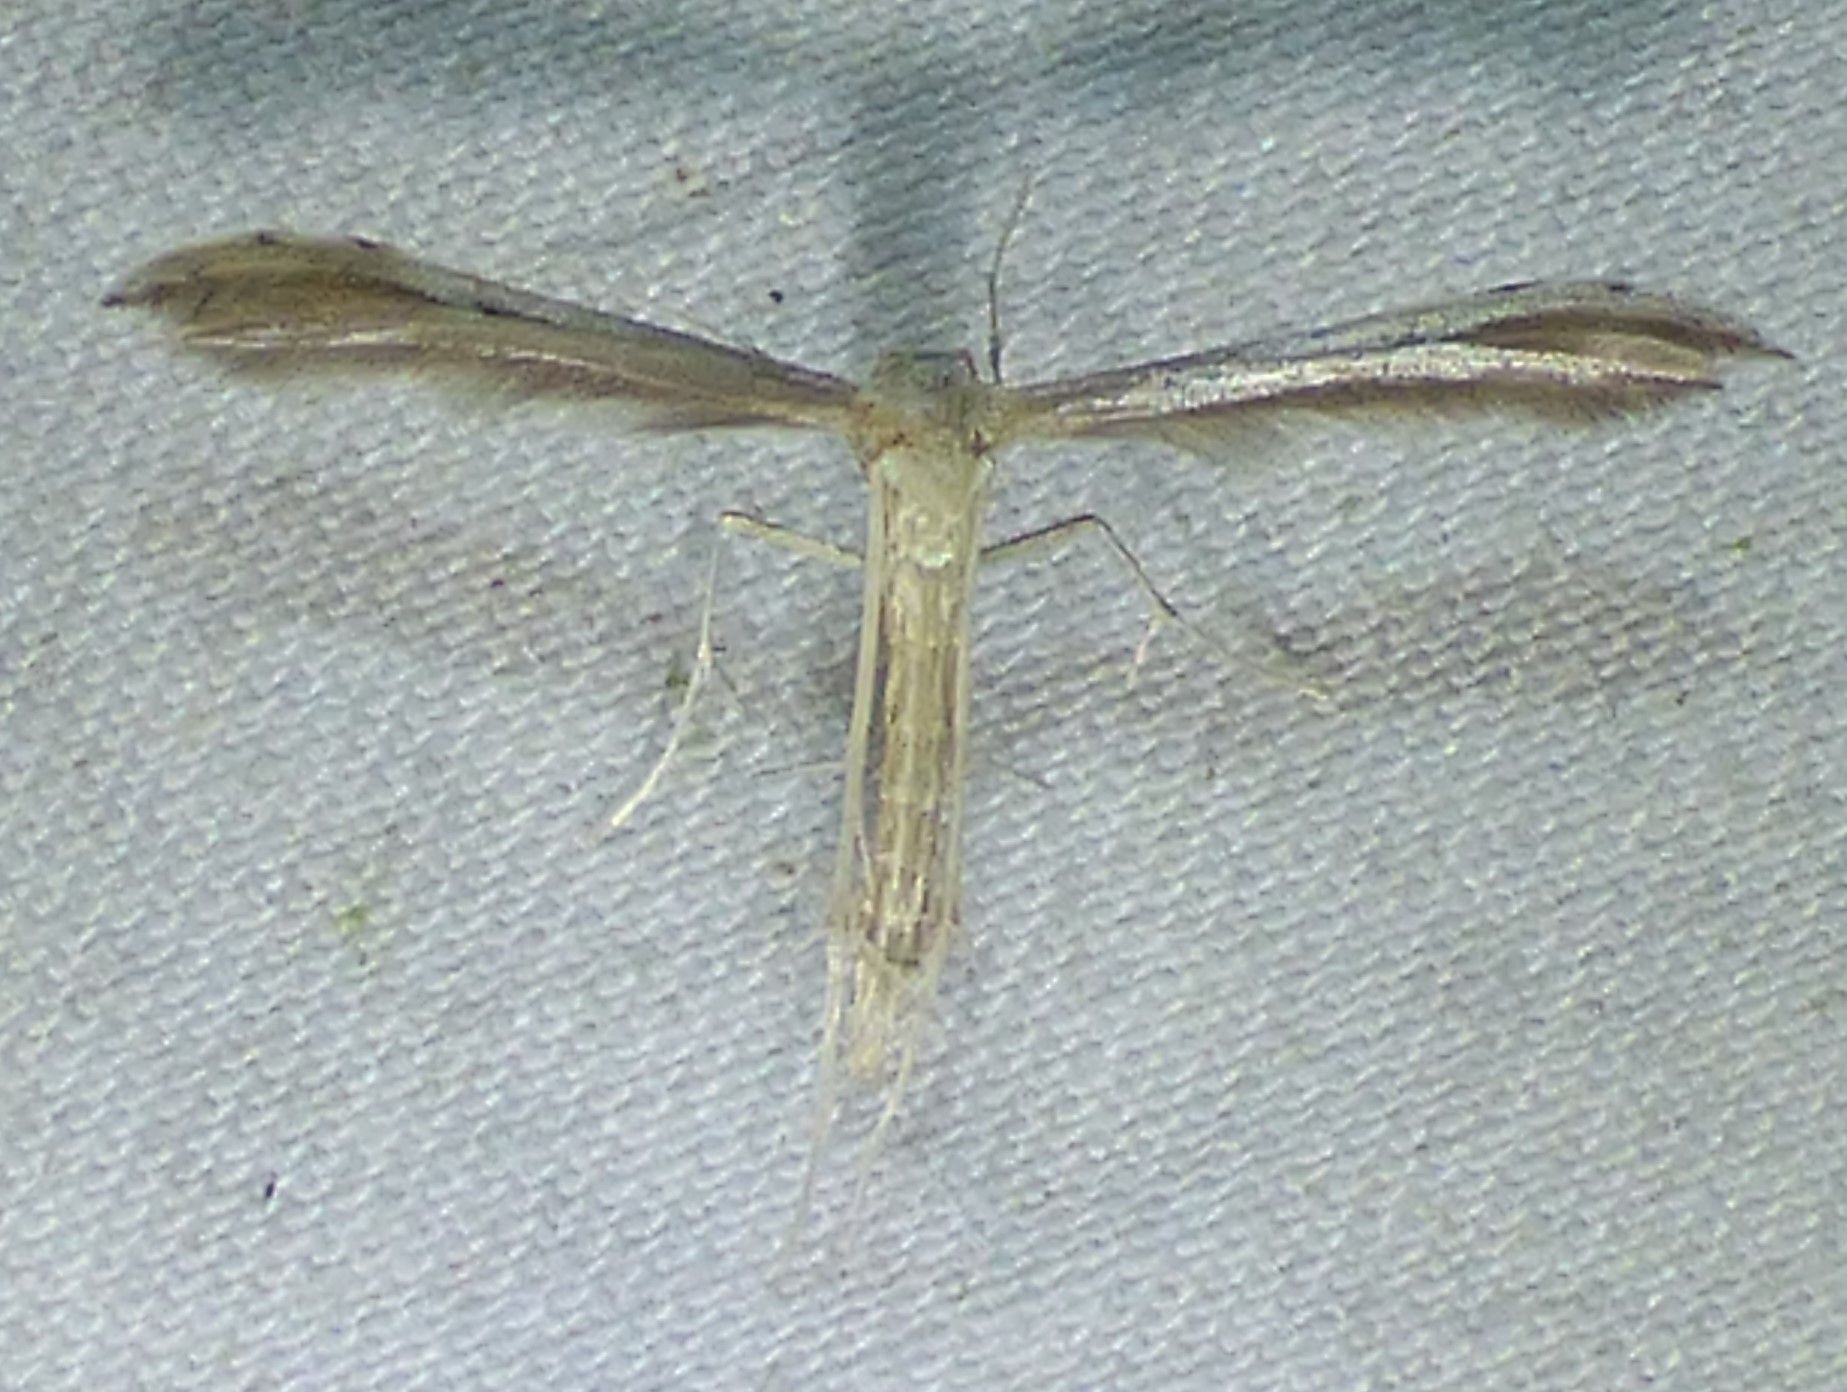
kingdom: Animalia
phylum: Arthropoda
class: Insecta
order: Lepidoptera
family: Pterophoridae
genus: Pselnophorus
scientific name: Pselnophorus belfragei
